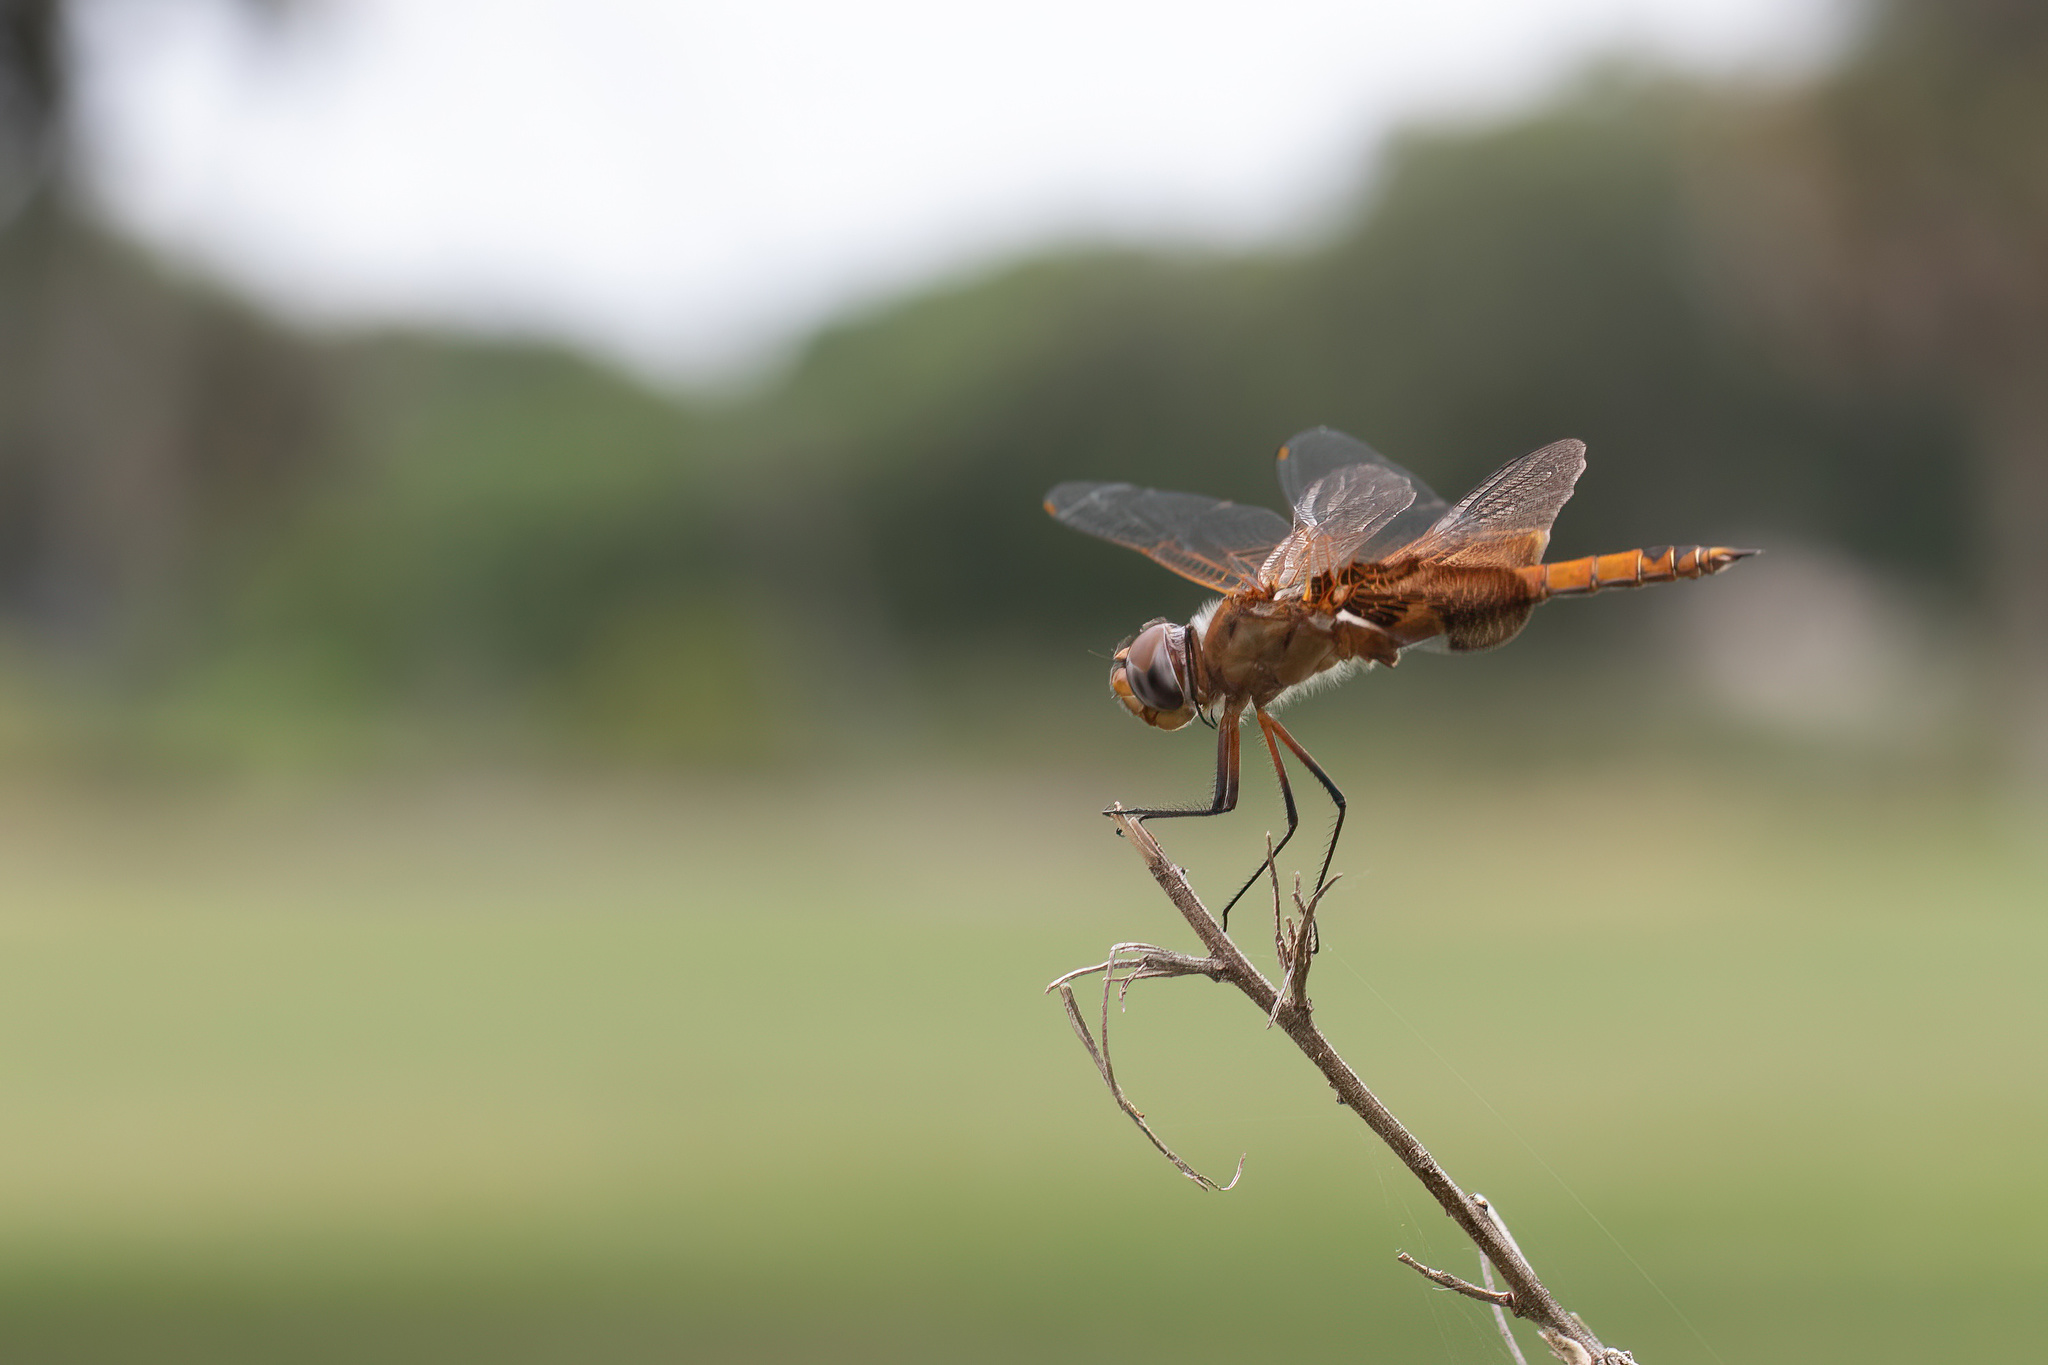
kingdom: Animalia
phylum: Arthropoda
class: Insecta
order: Odonata
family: Libellulidae
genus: Tramea
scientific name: Tramea onusta
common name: Red saddlebags
